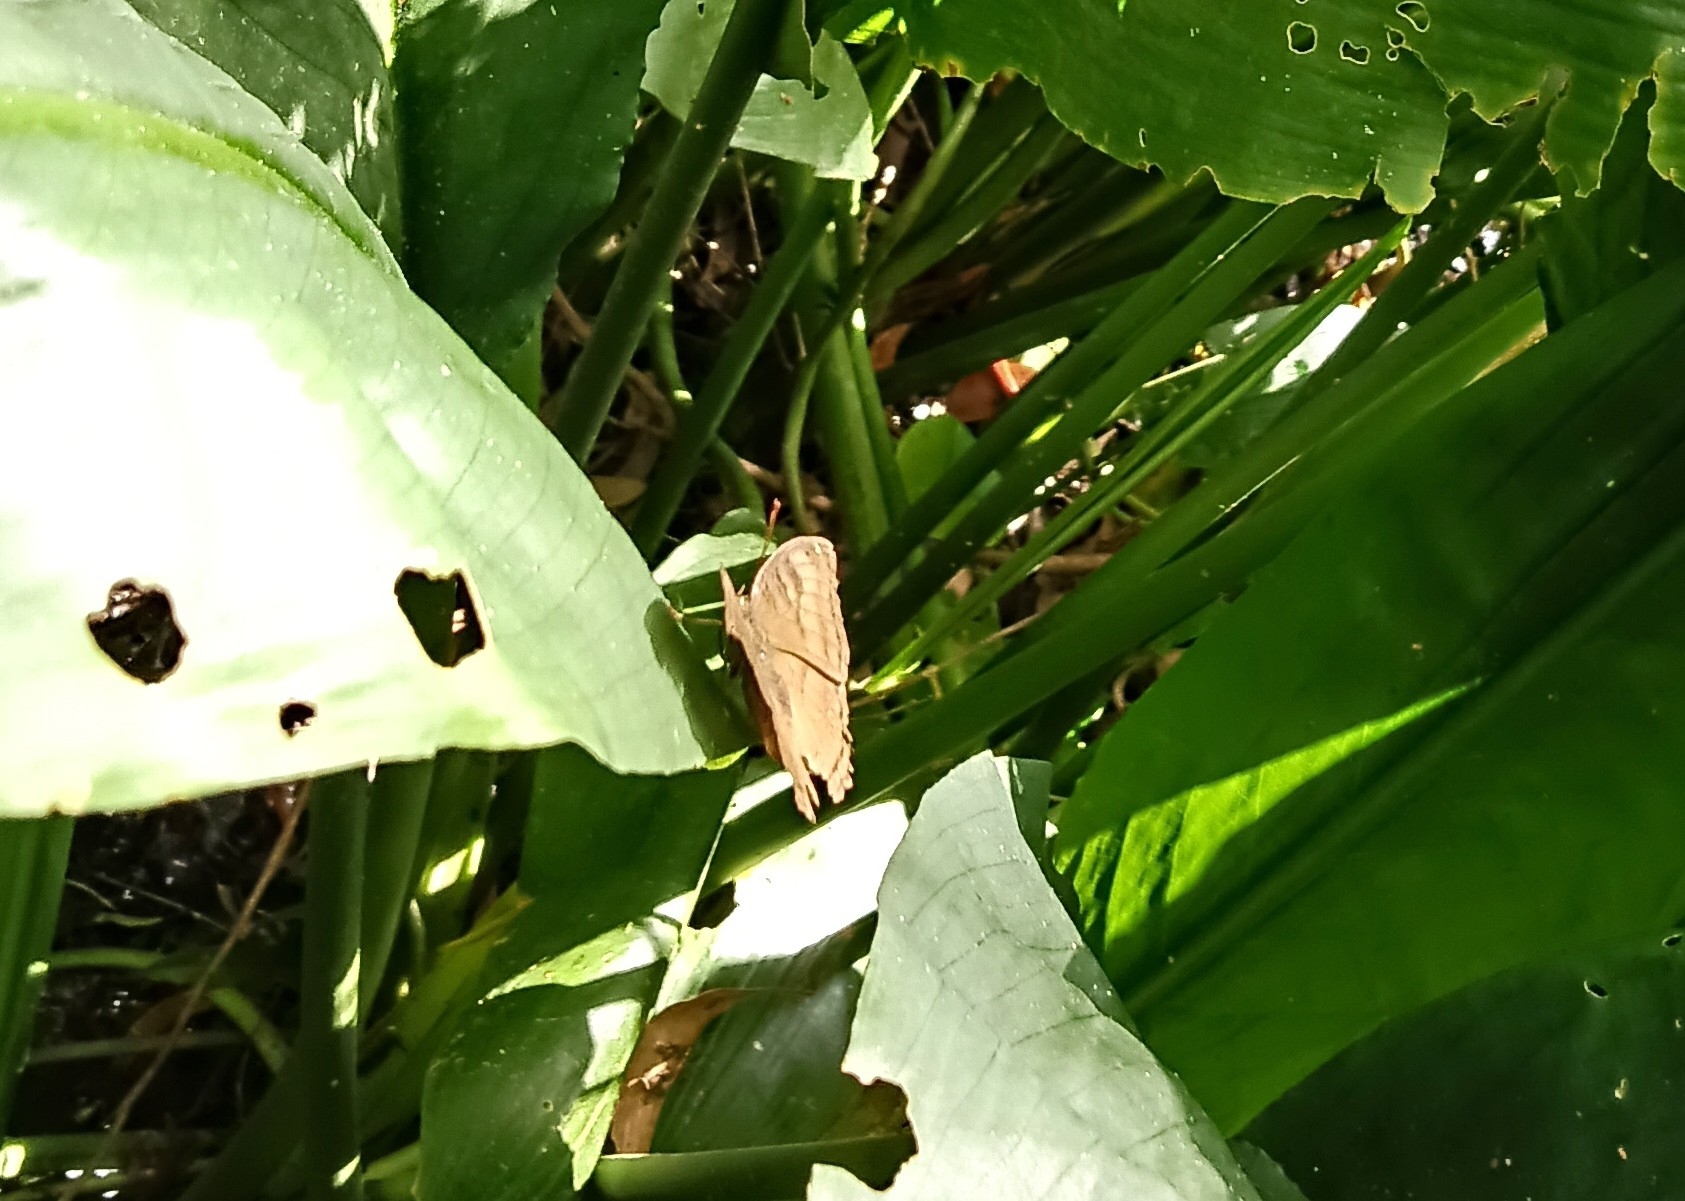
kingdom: Animalia
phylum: Arthropoda
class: Insecta
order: Lepidoptera
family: Nymphalidae
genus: Junonia
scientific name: Junonia iphita
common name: Chocolate pansy
